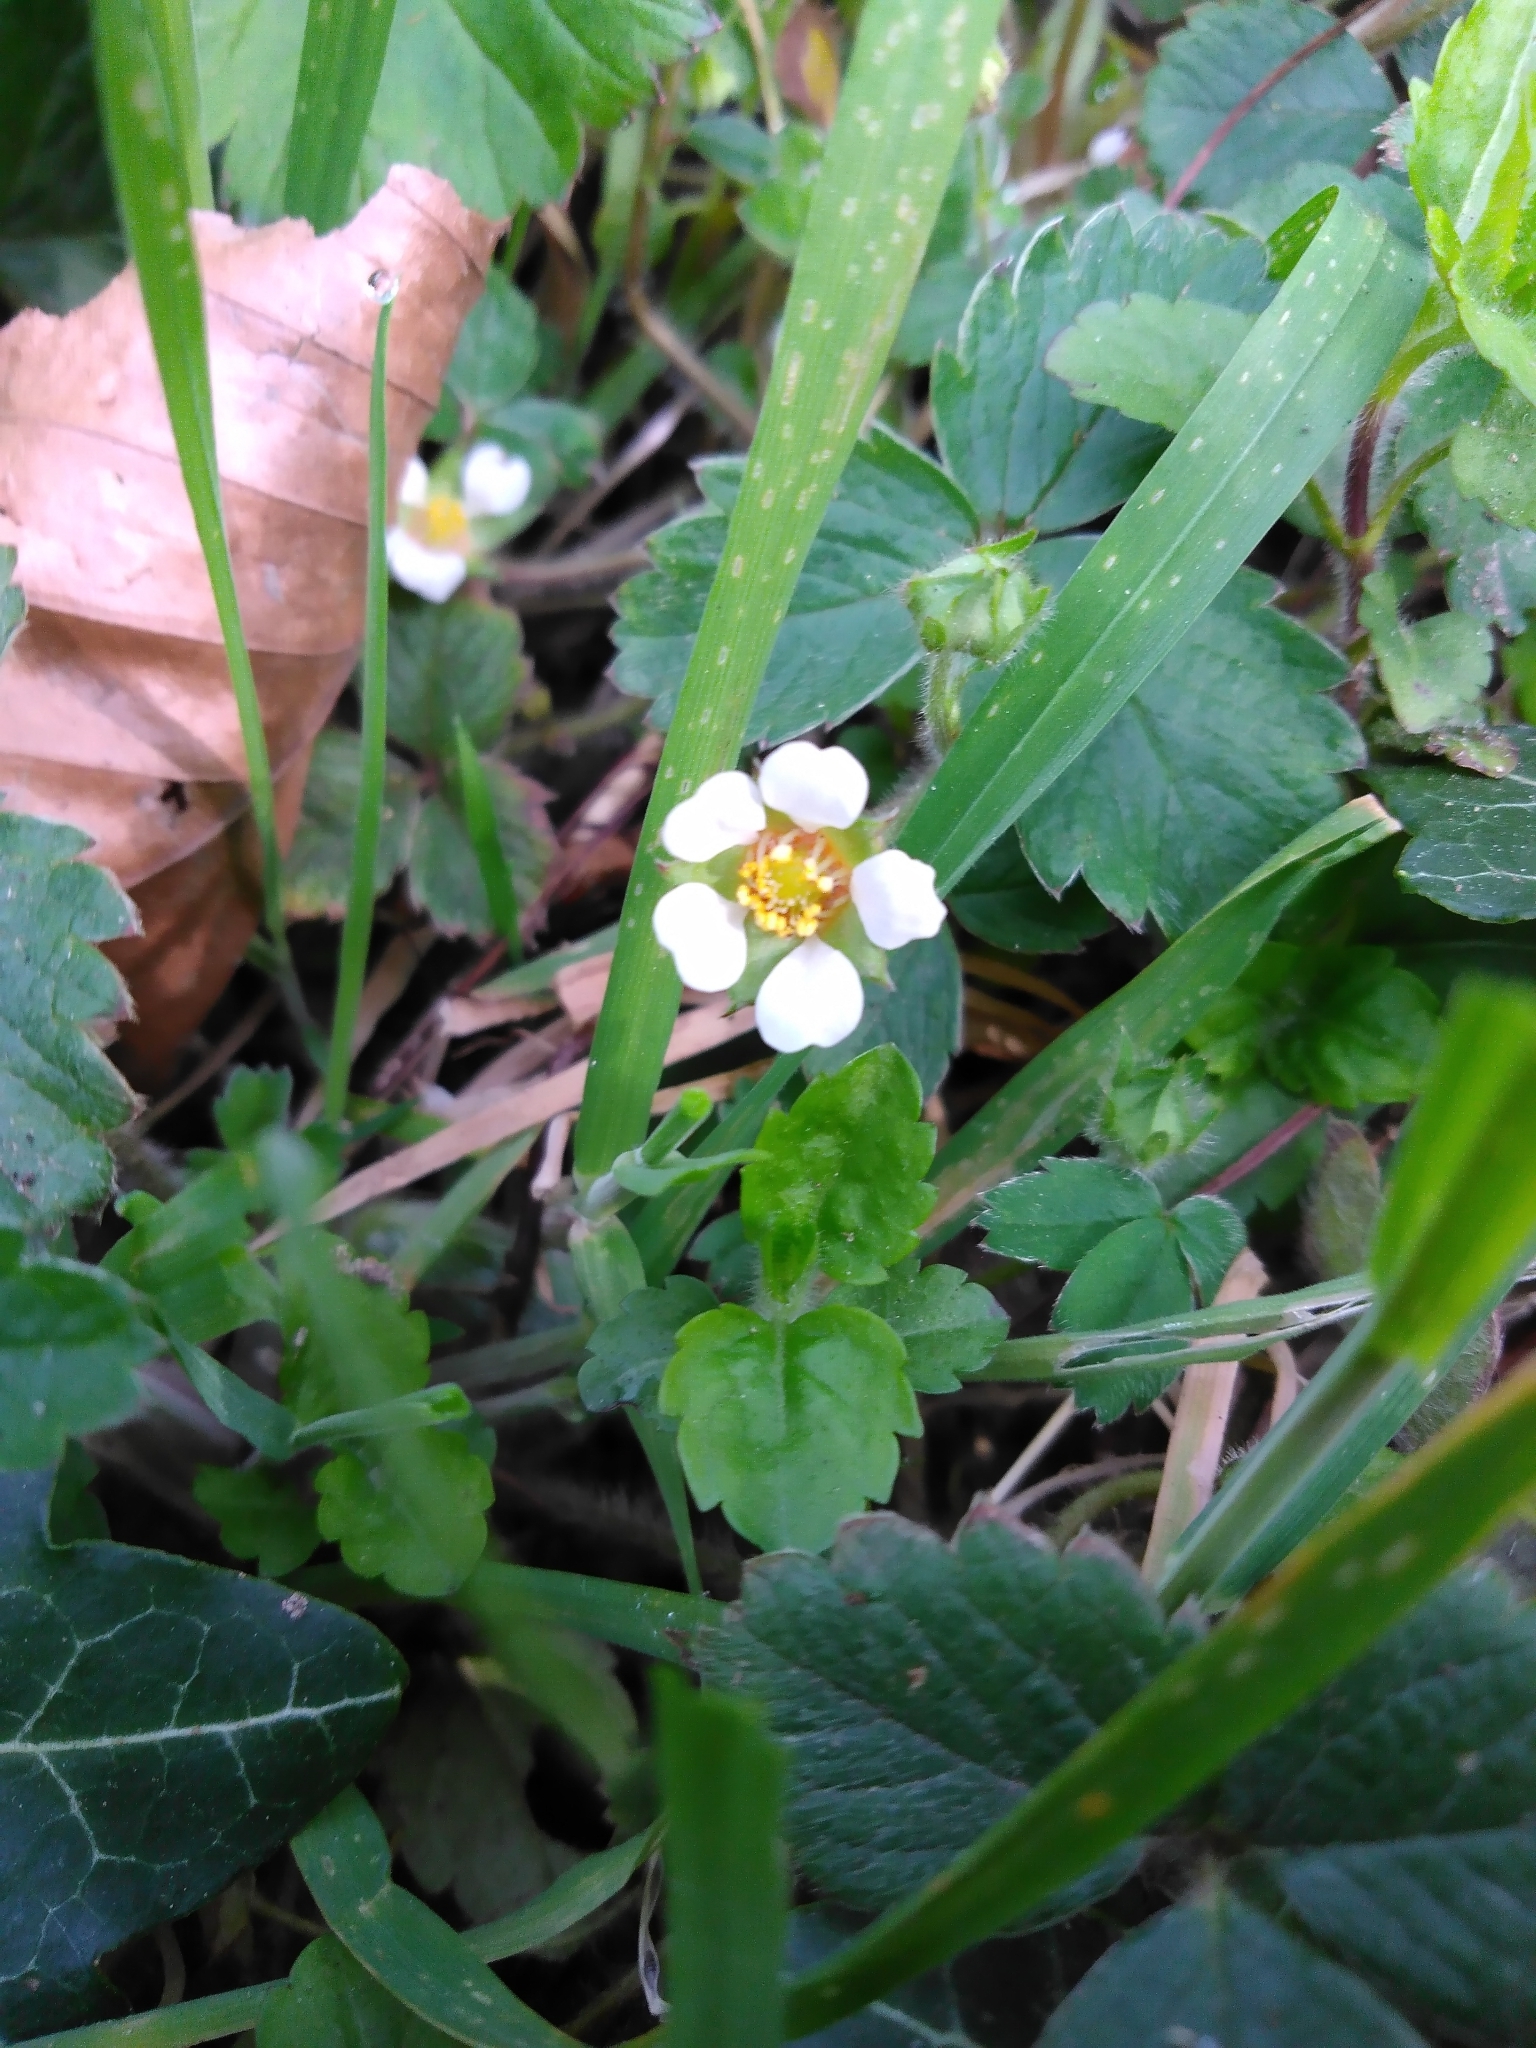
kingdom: Plantae
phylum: Tracheophyta
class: Magnoliopsida
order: Rosales
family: Rosaceae
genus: Potentilla
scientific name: Potentilla sterilis
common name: Barren strawberry
